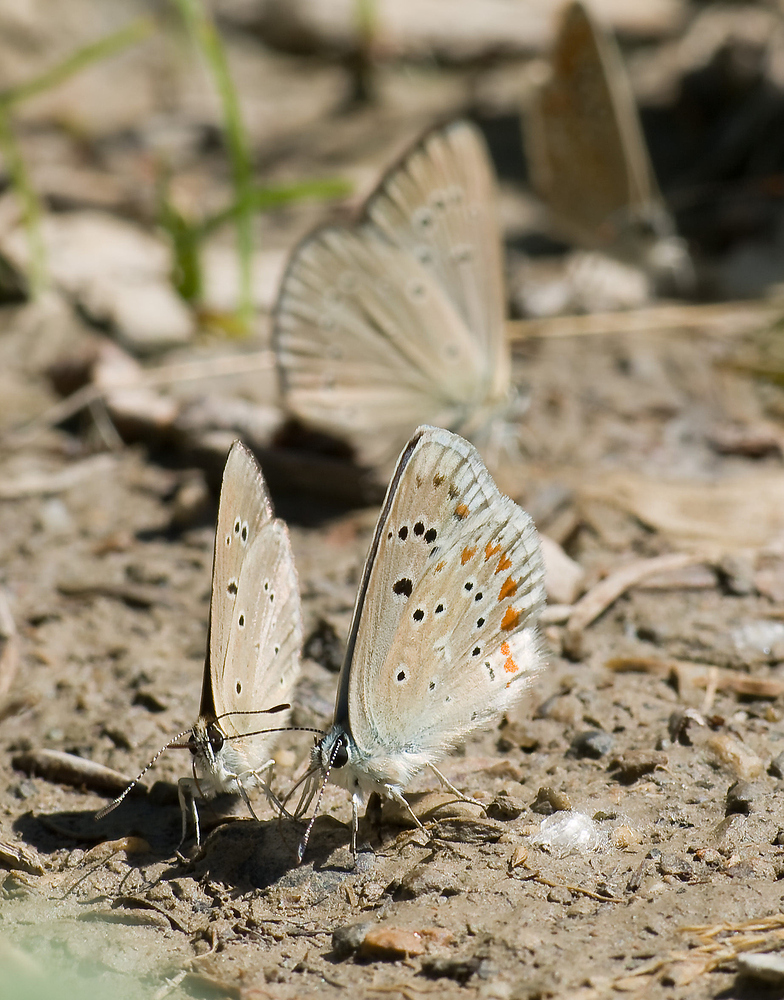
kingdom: Animalia
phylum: Arthropoda
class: Insecta
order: Lepidoptera
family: Lycaenidae
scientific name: Lycaenidae
